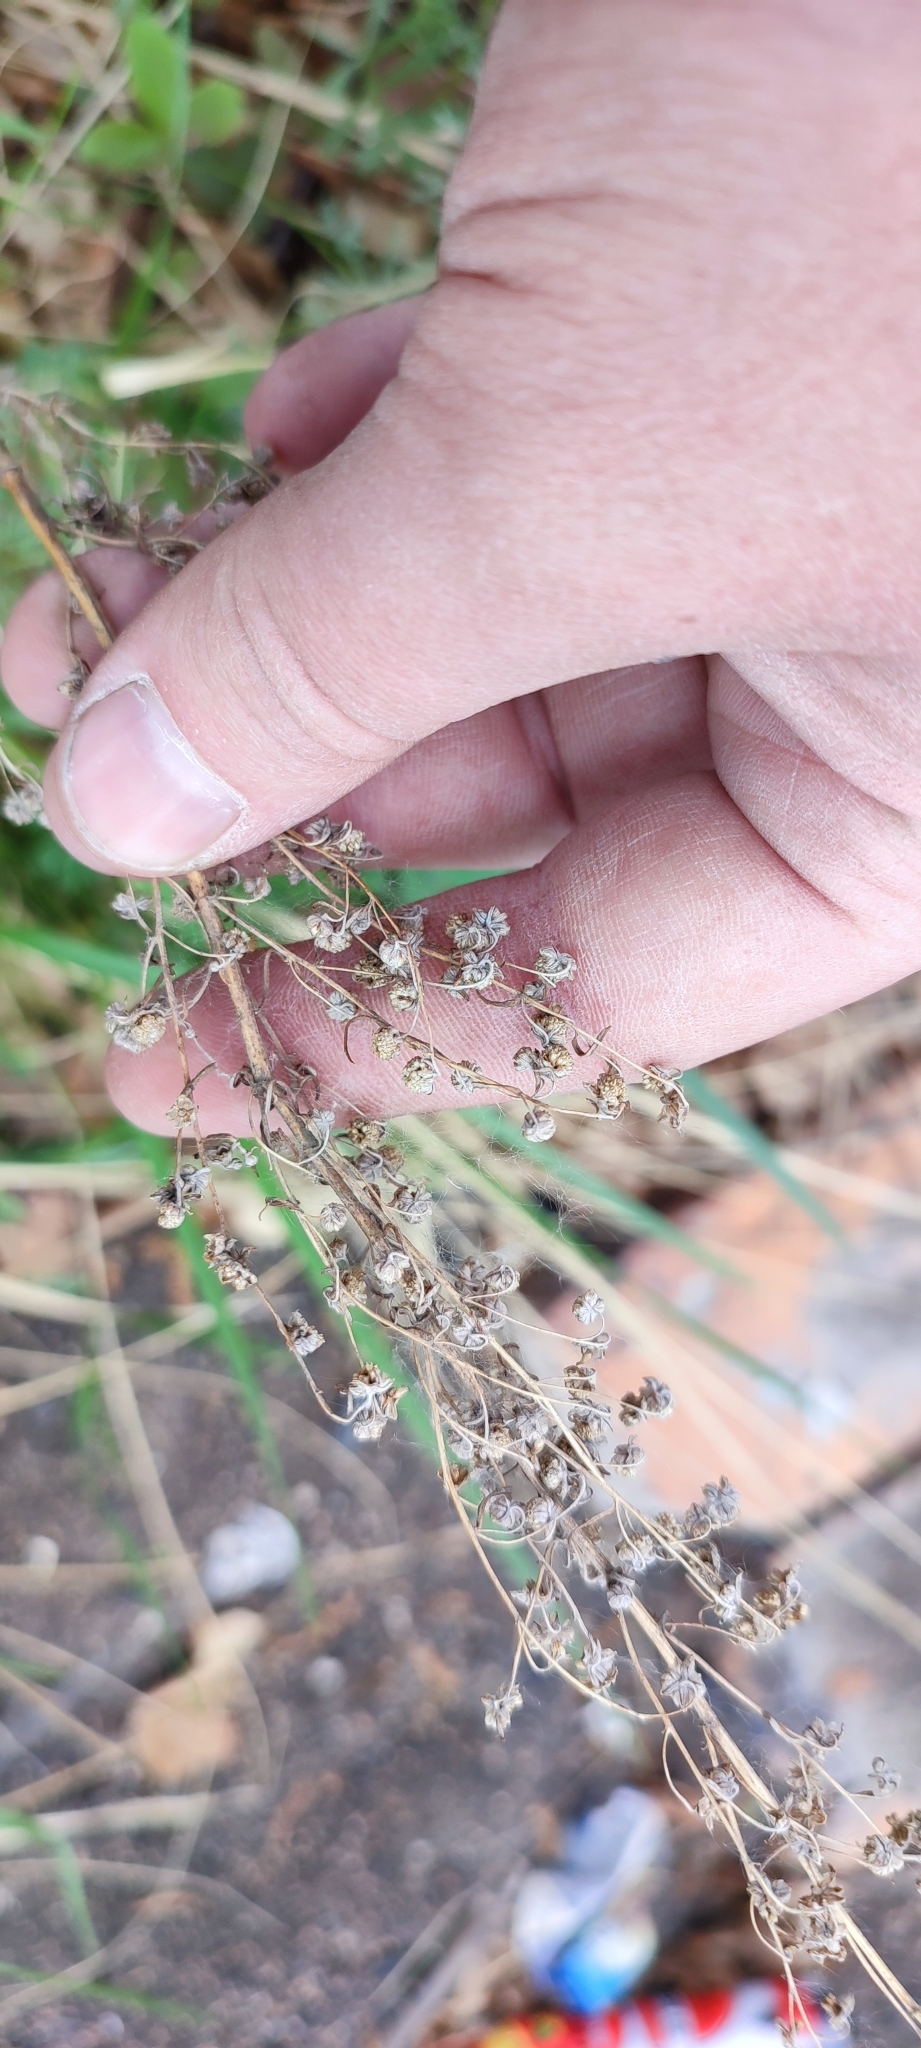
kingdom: Plantae
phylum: Tracheophyta
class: Magnoliopsida
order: Asterales
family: Asteraceae
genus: Artemisia
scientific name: Artemisia macrantha
